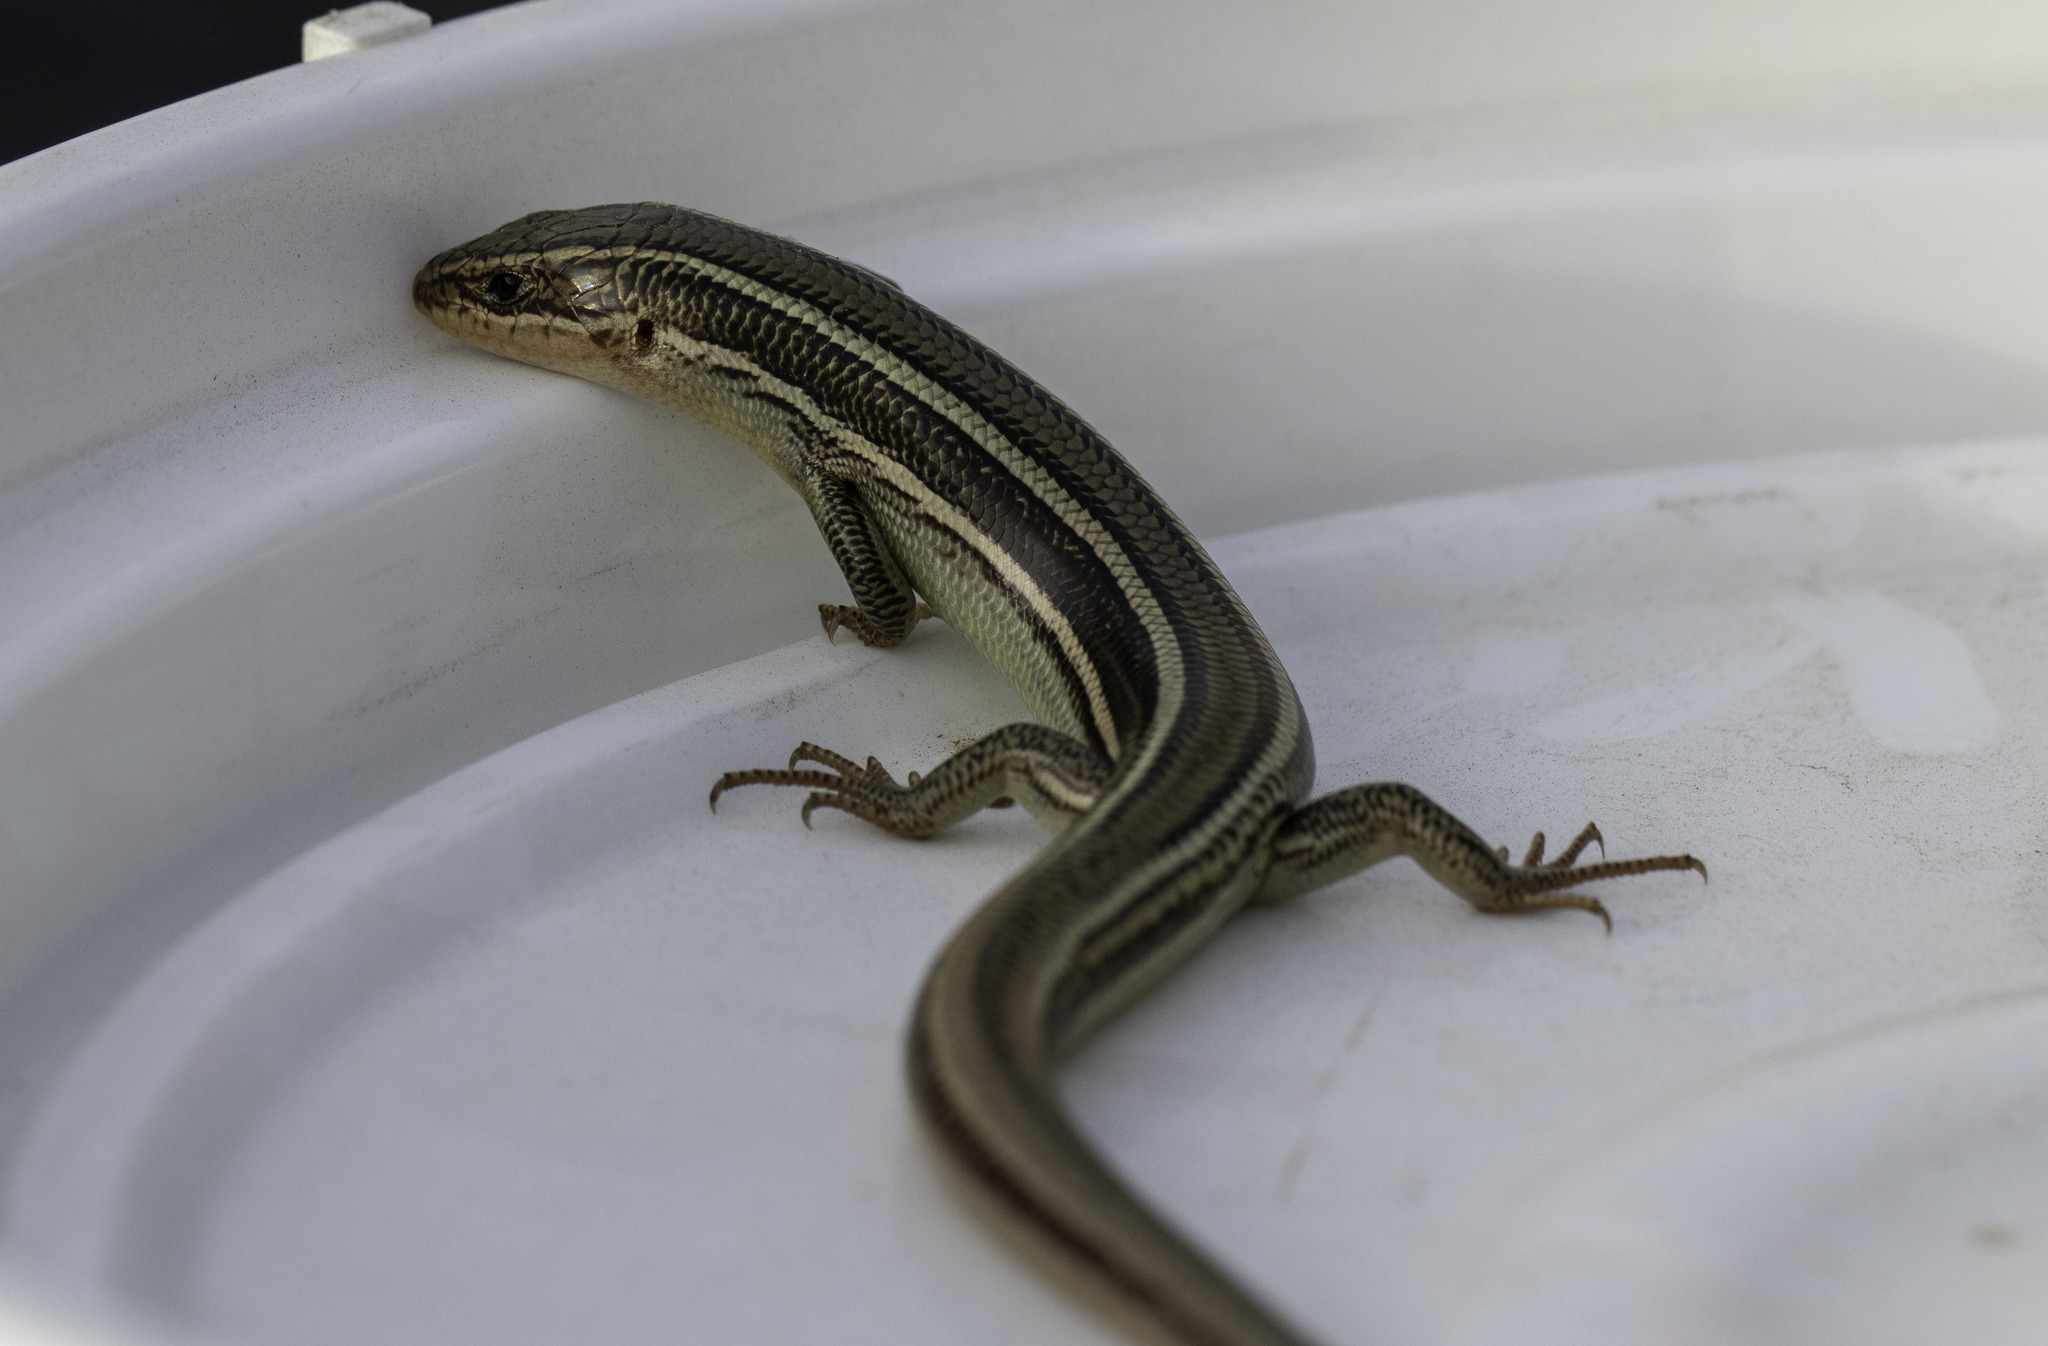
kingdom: Animalia
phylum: Chordata
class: Squamata
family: Scincidae
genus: Plestiodon
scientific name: Plestiodon skiltonianus
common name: Coronado island skink [interparietalis]
